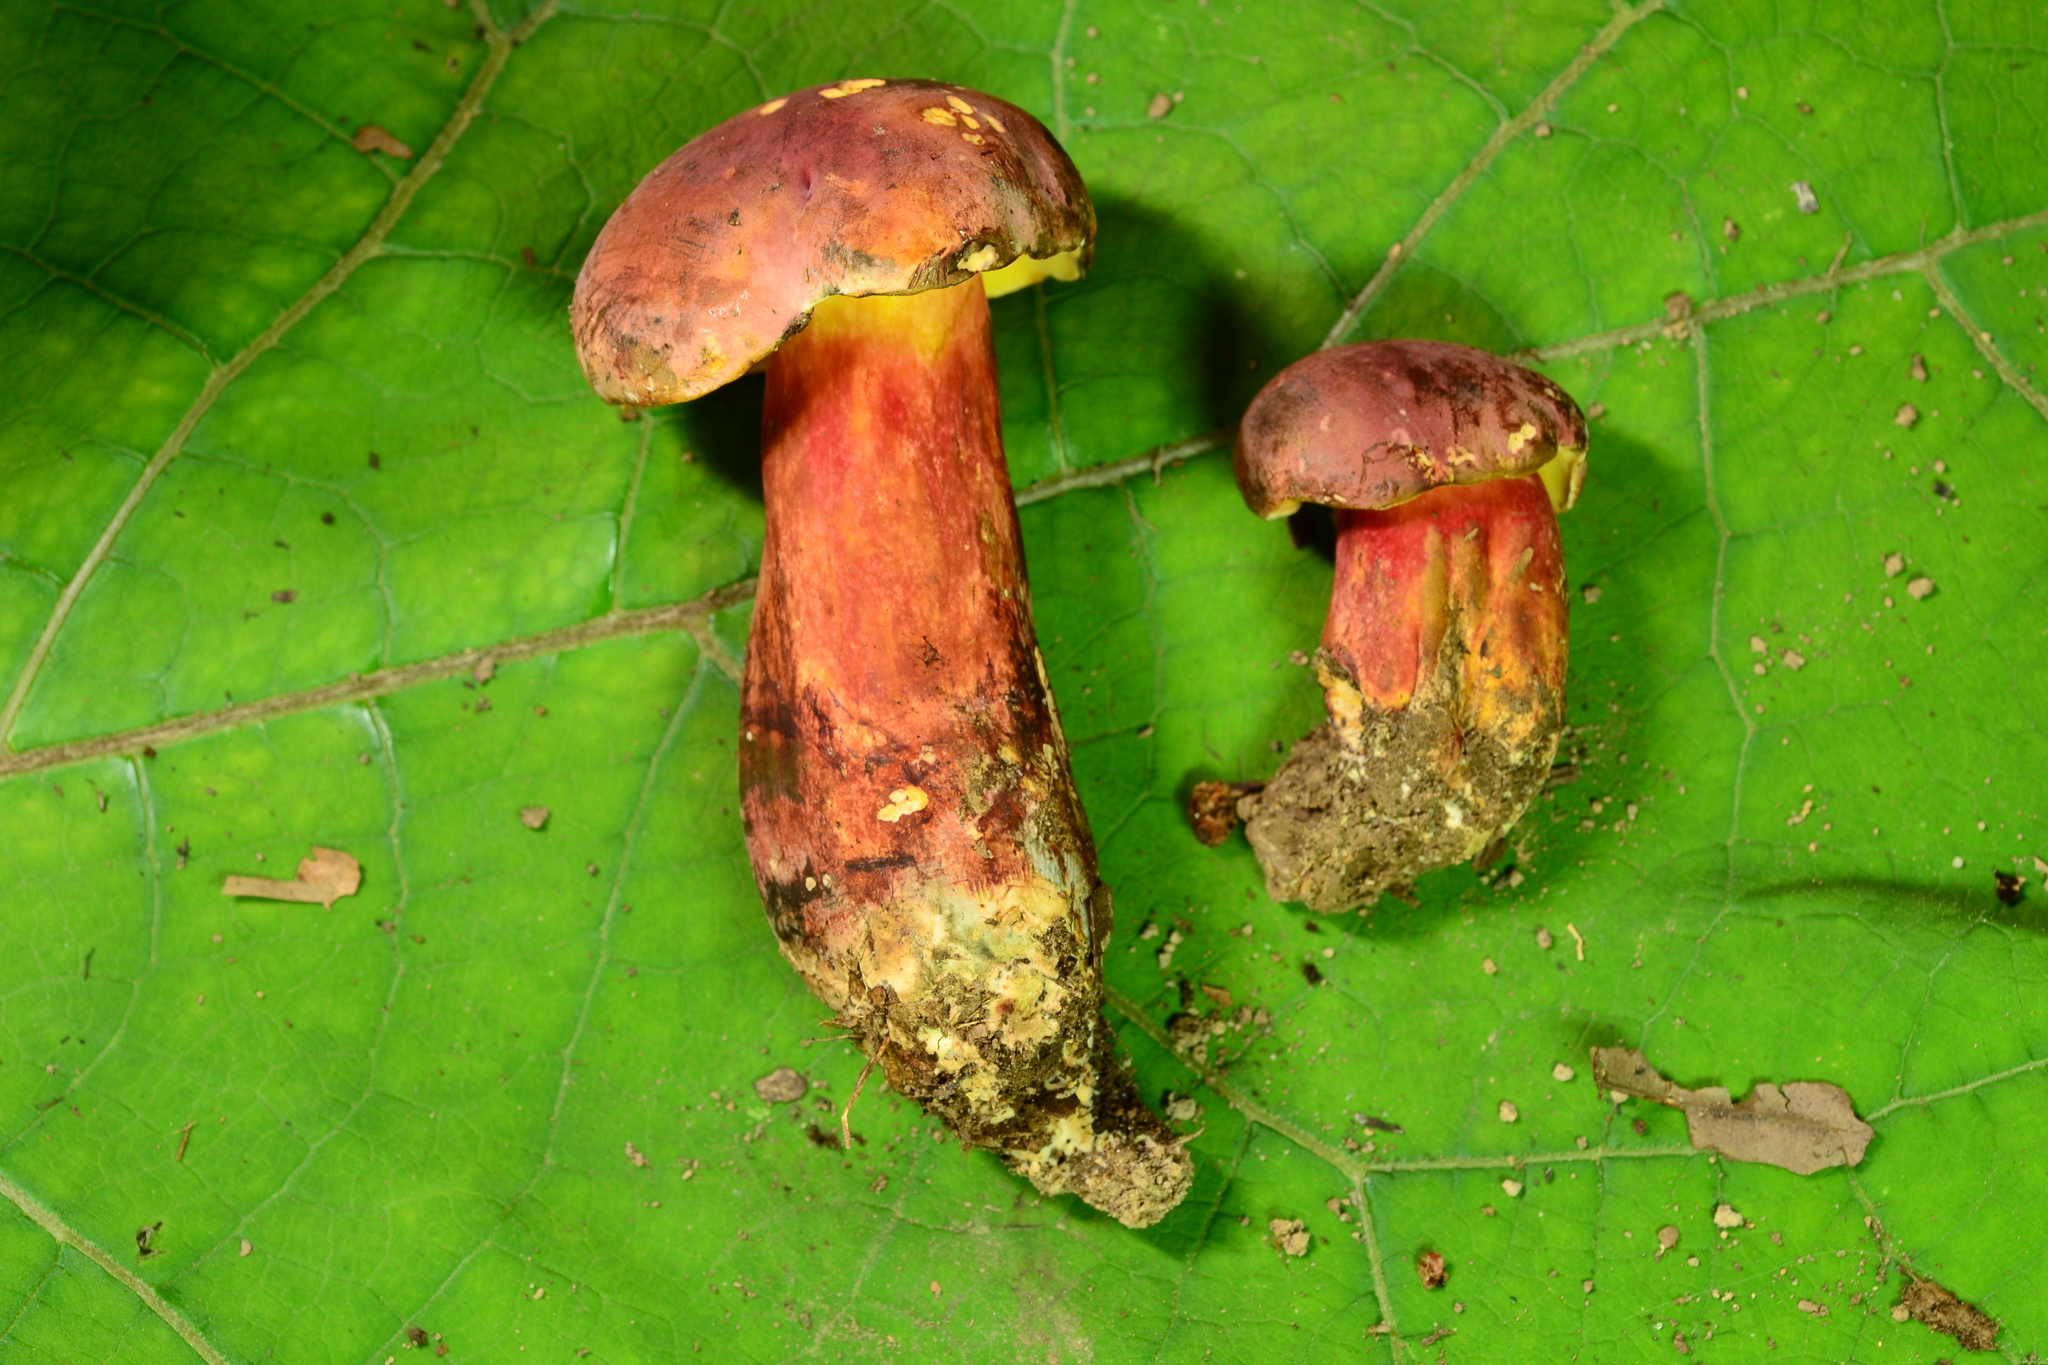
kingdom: Fungi
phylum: Basidiomycota
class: Agaricomycetes
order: Boletales
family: Boletaceae
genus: Lanmaoa
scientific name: Lanmaoa pallidorosea
